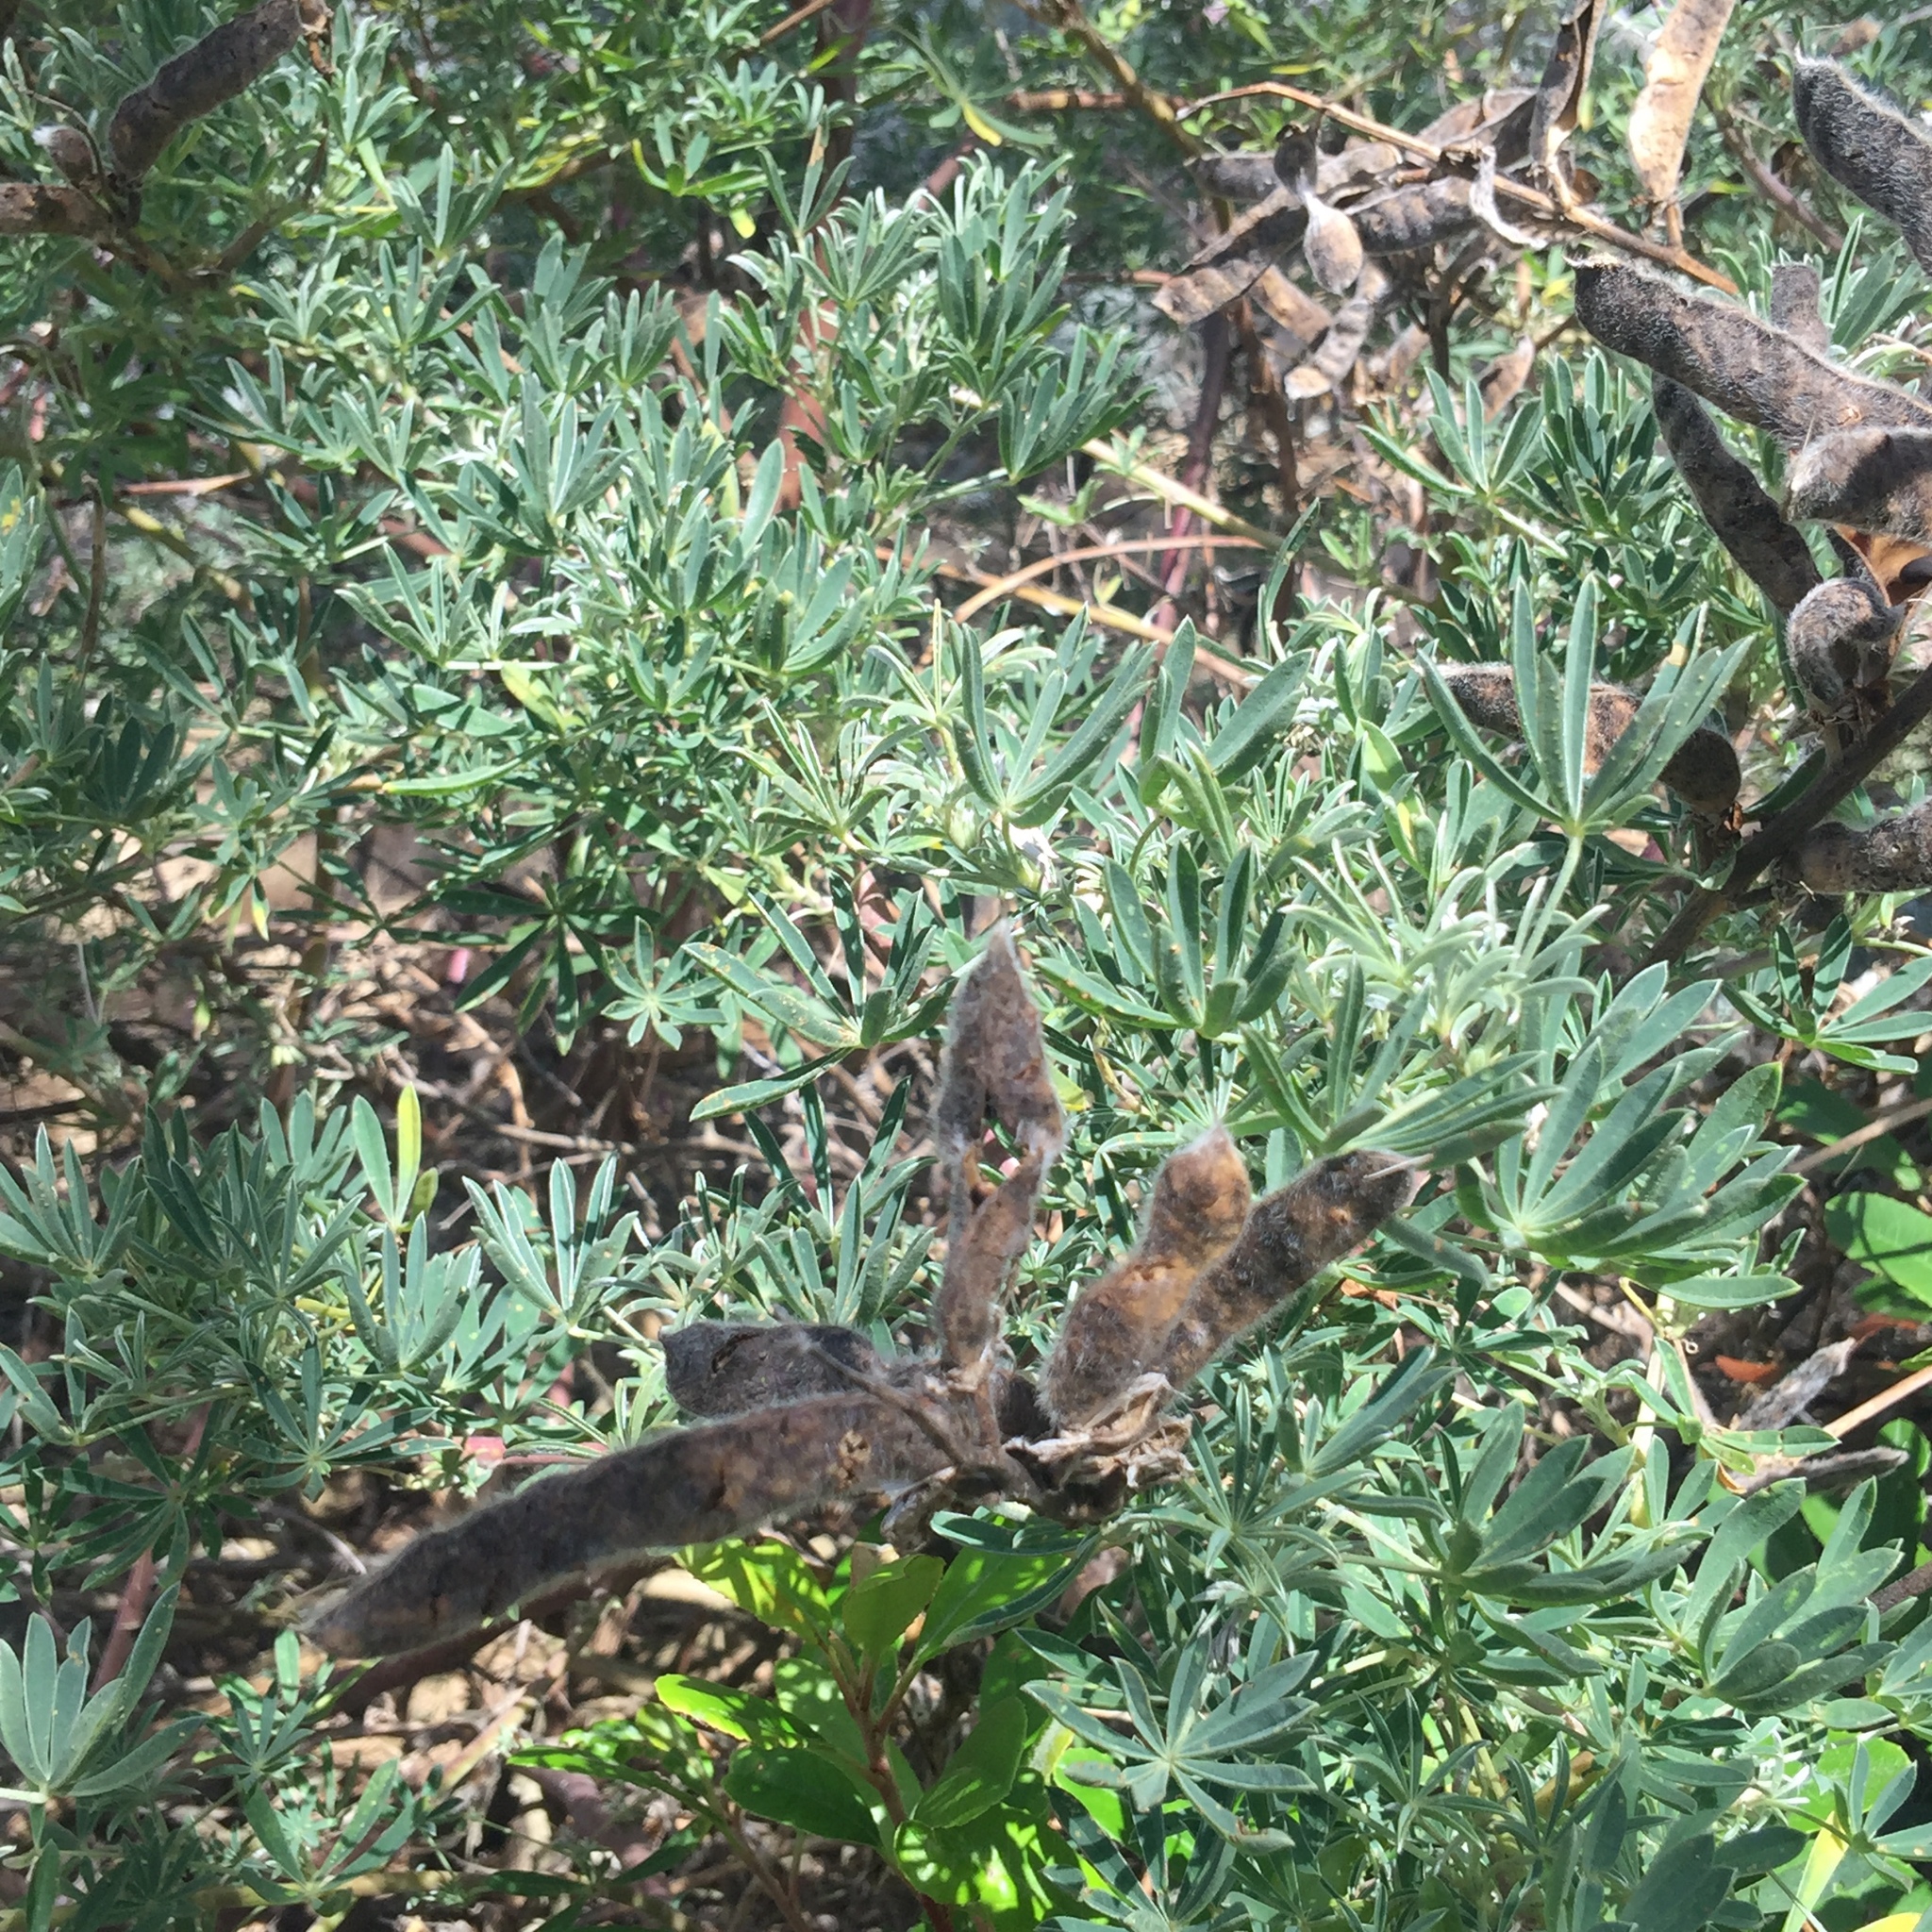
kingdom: Plantae
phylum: Tracheophyta
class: Magnoliopsida
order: Fabales
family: Fabaceae
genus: Lupinus
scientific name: Lupinus arboreus
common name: Yellow bush lupine
